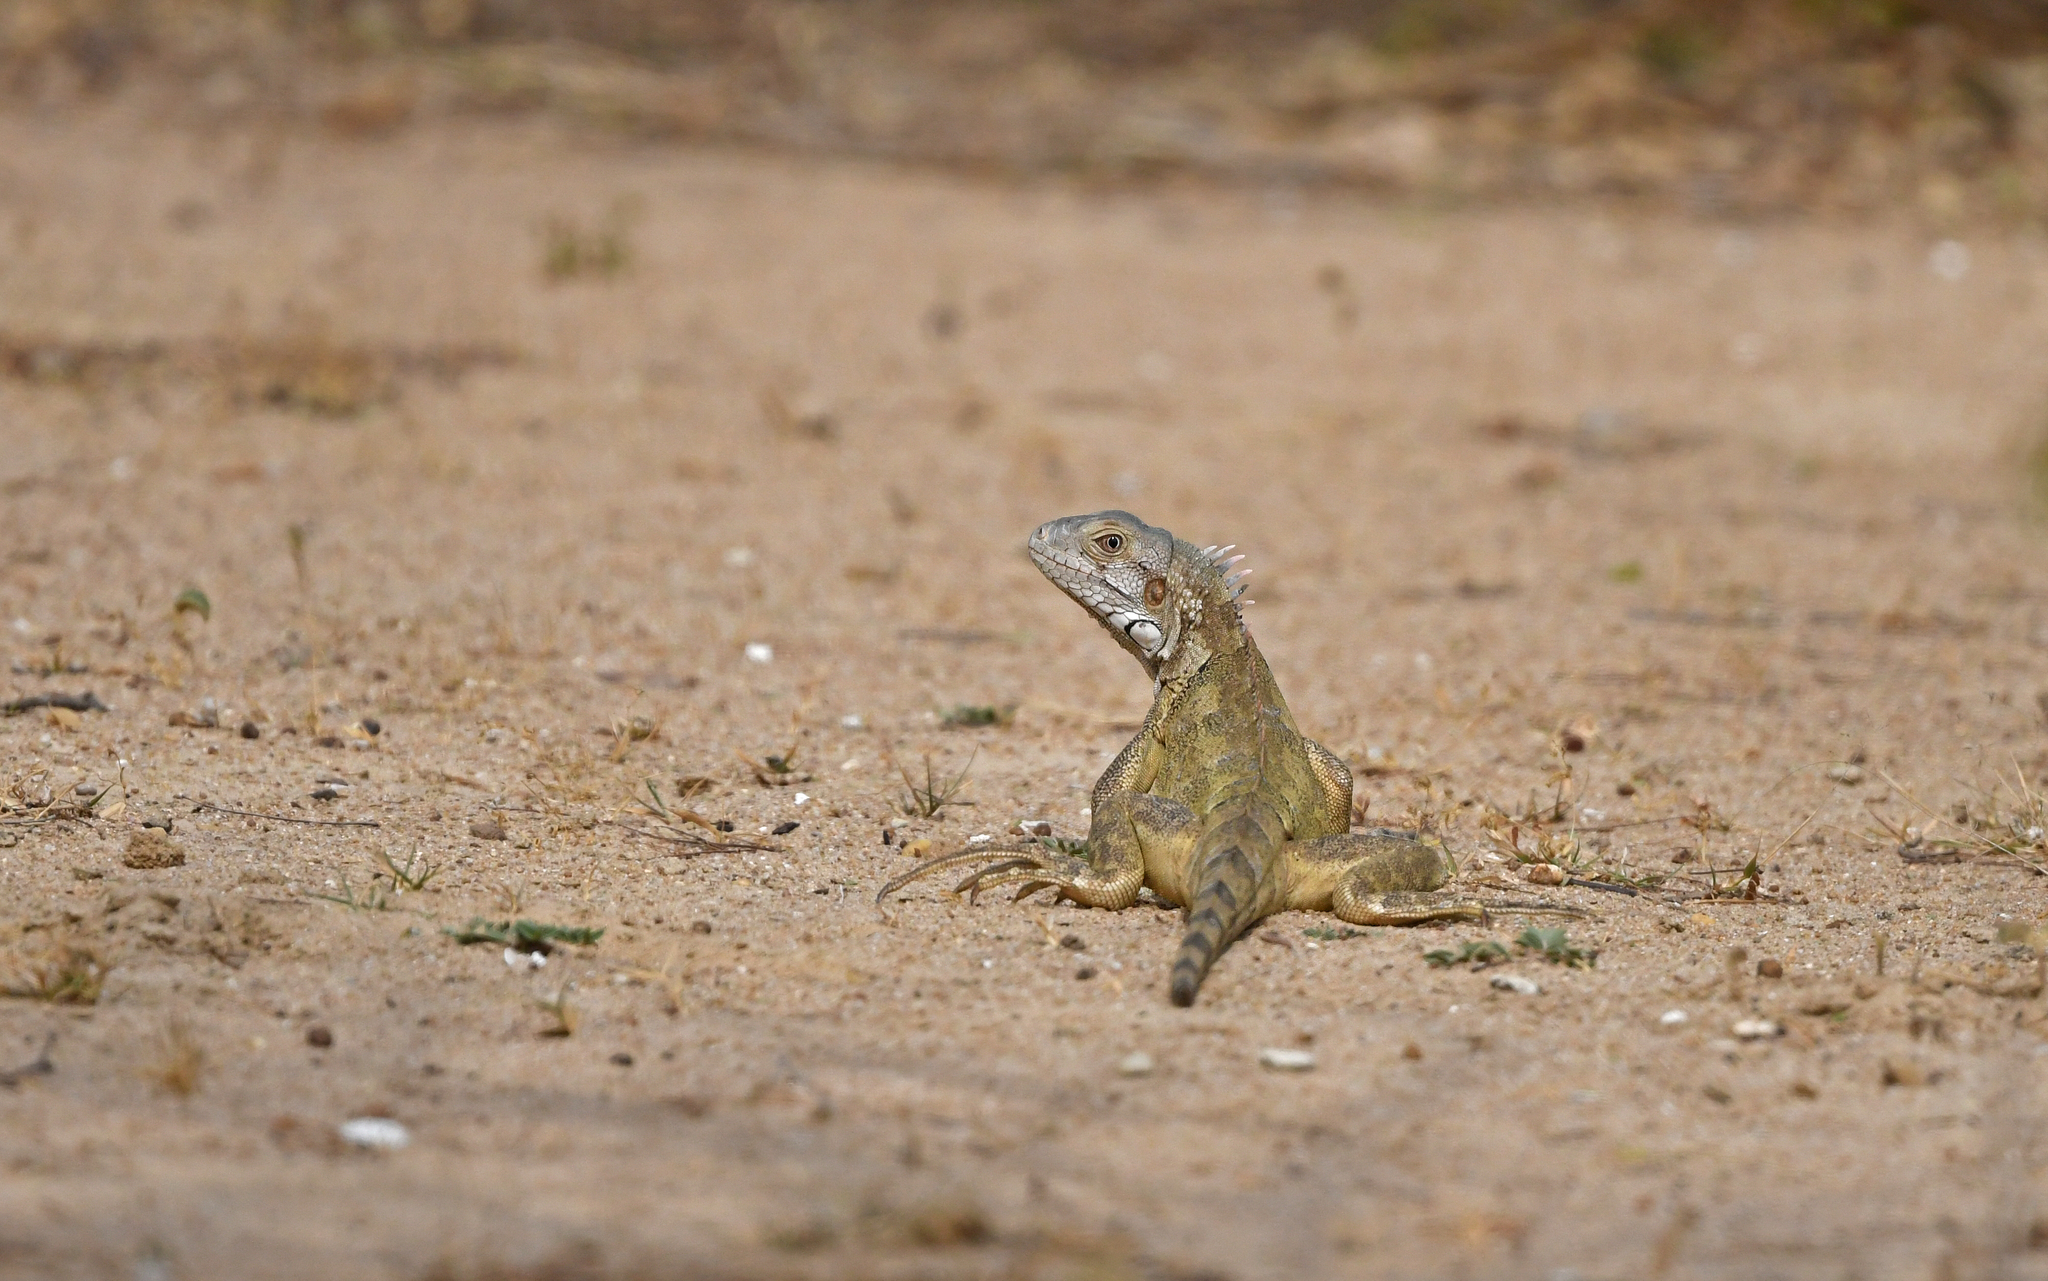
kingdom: Animalia
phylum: Chordata
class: Squamata
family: Iguanidae
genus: Iguana
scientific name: Iguana iguana
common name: Green iguana
